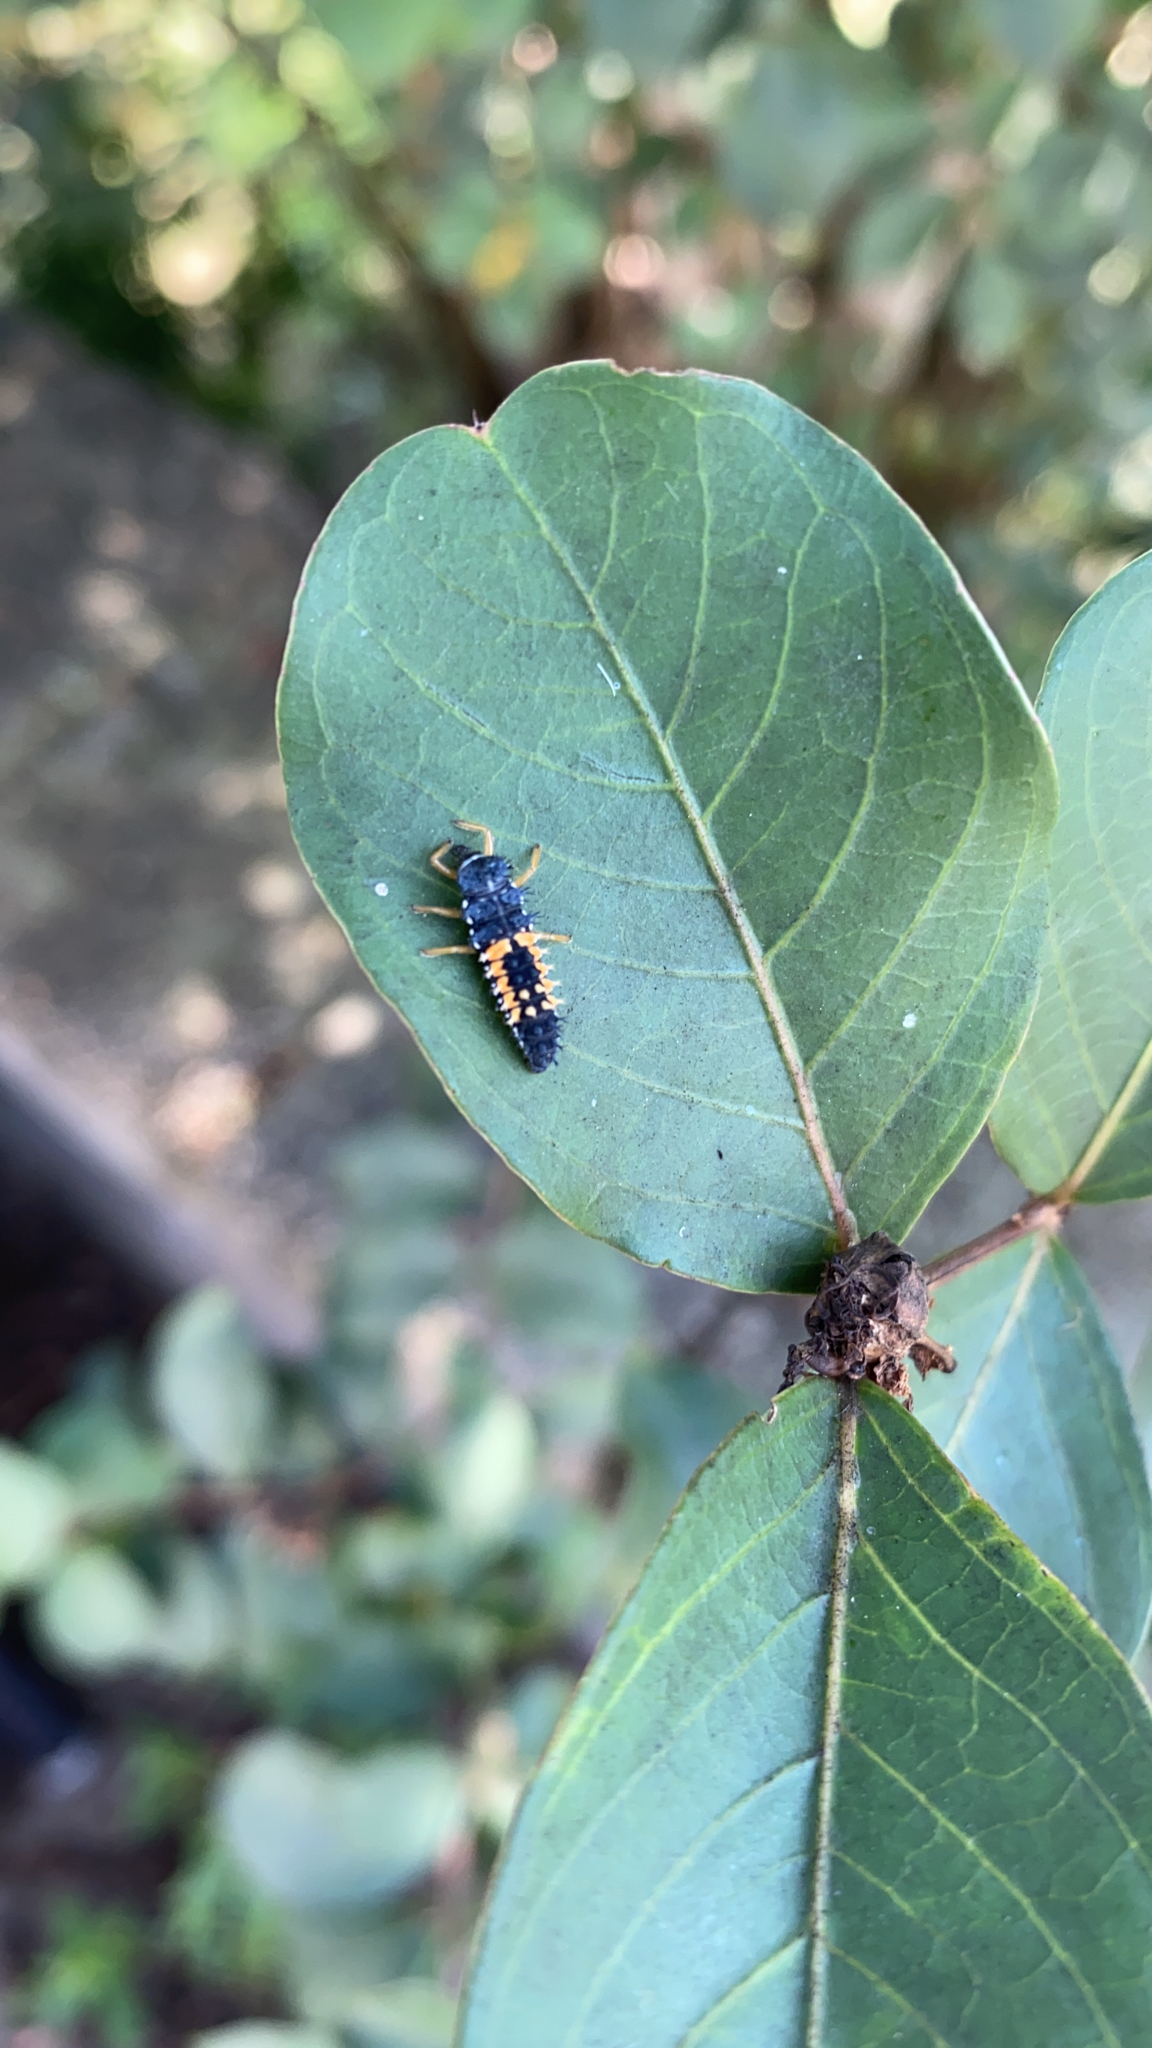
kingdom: Animalia
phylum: Arthropoda
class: Insecta
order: Coleoptera
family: Coccinellidae
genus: Harmonia
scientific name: Harmonia axyridis
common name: Harlequin ladybird
